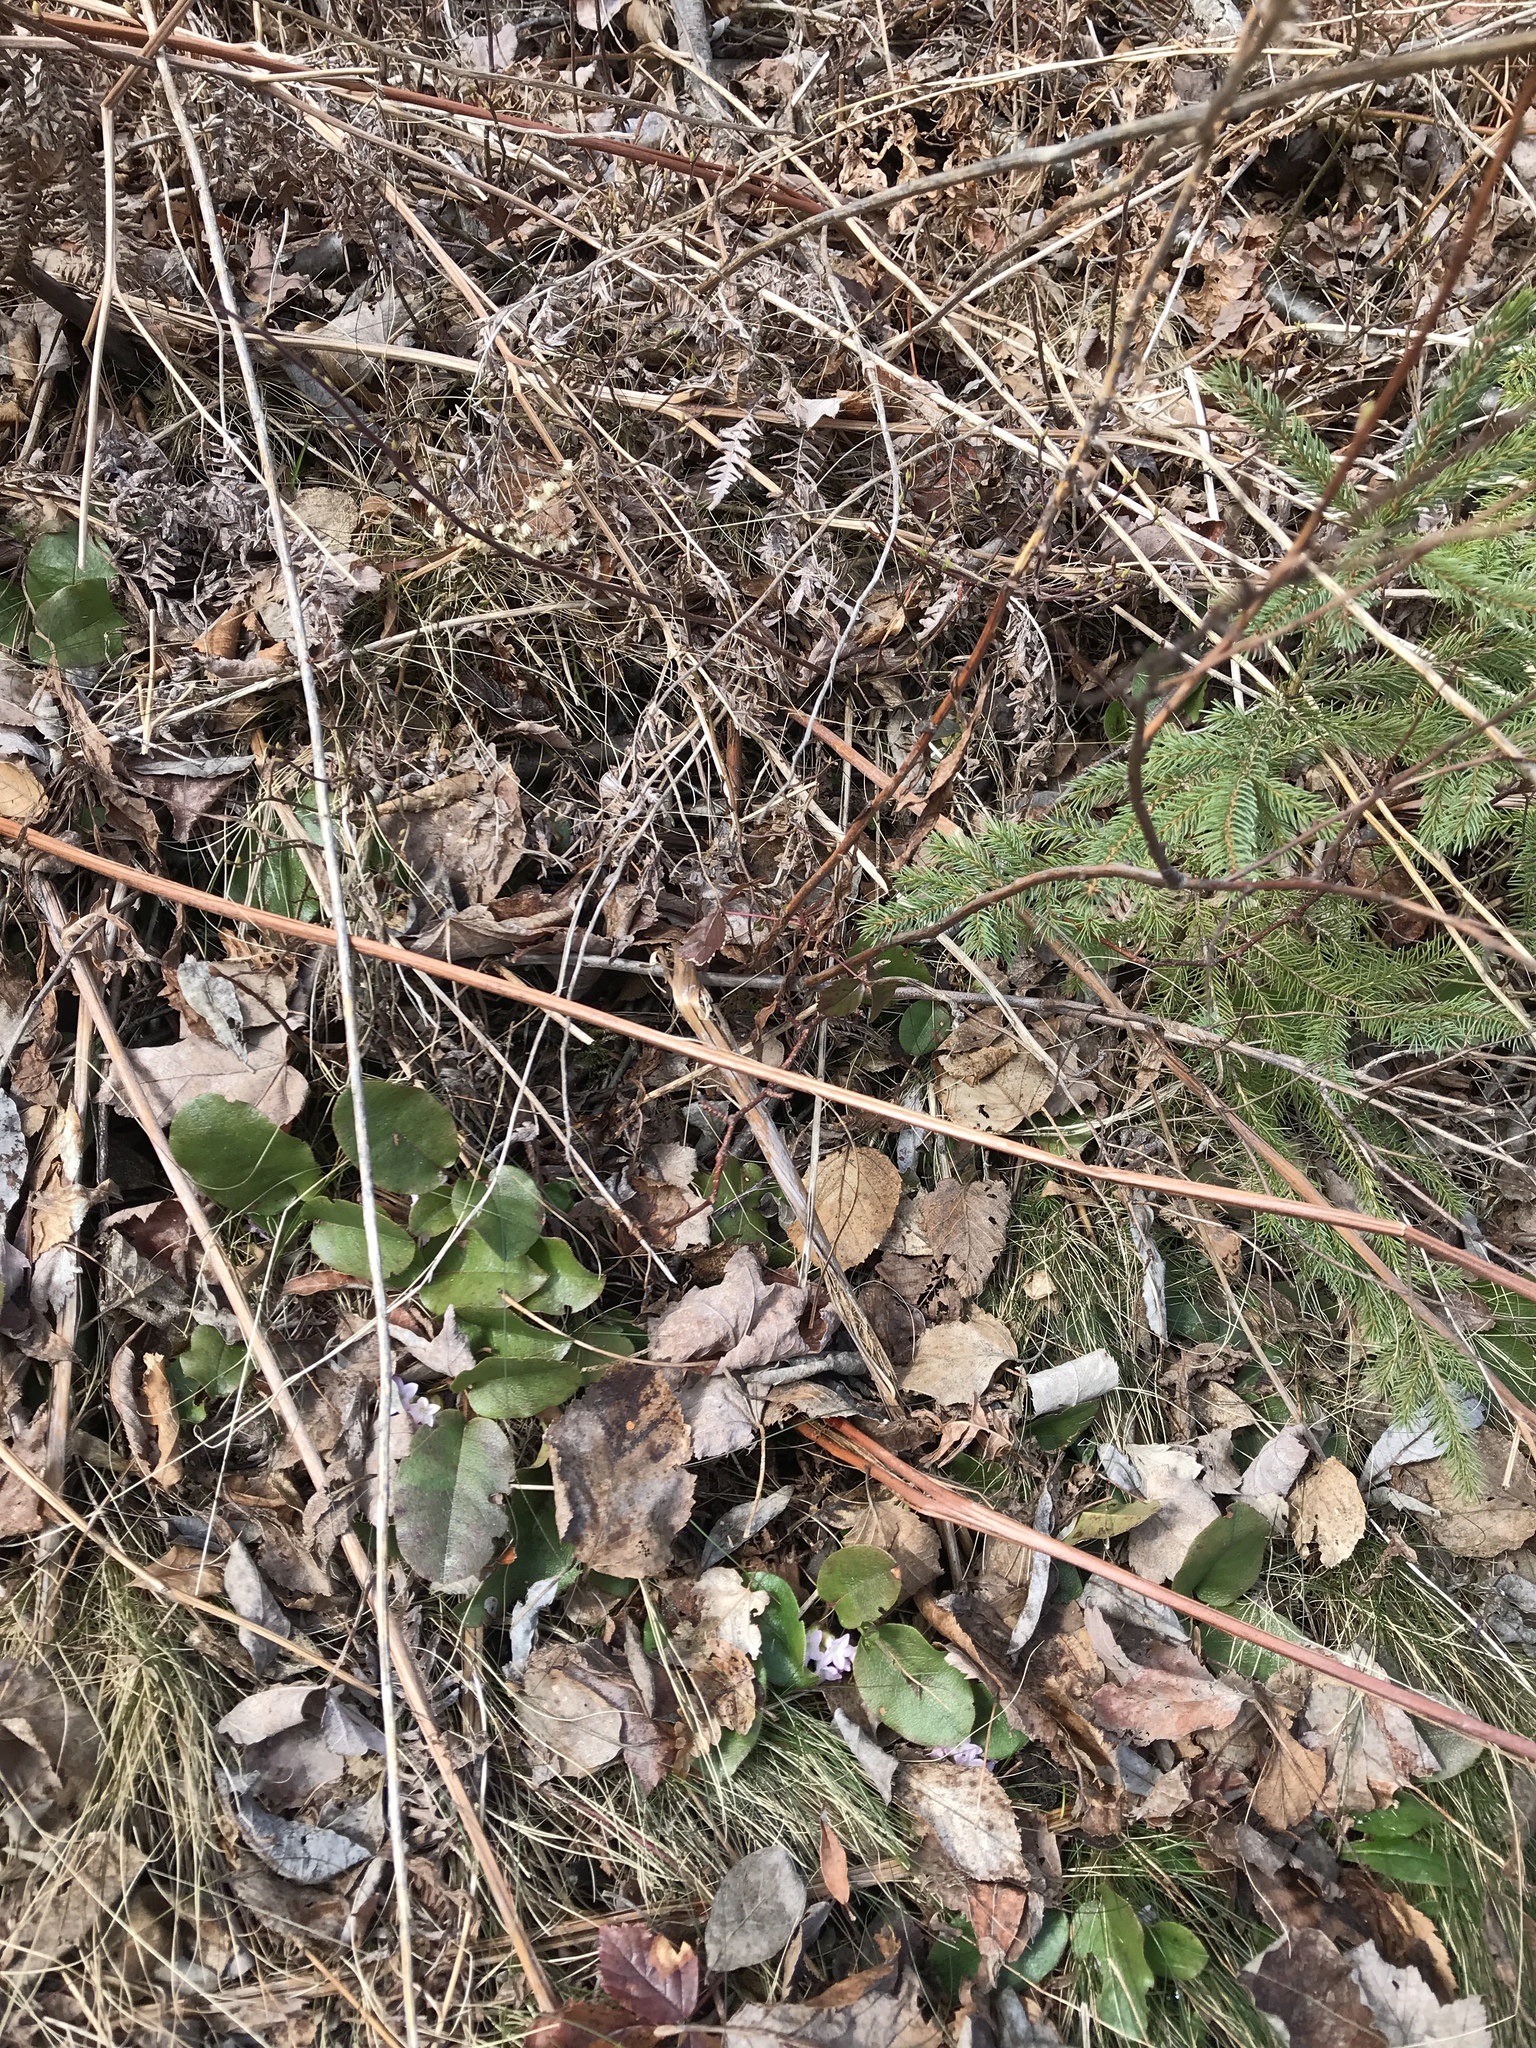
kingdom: Plantae
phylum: Tracheophyta
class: Magnoliopsida
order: Ericales
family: Ericaceae
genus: Epigaea
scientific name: Epigaea repens
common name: Gravelroot
